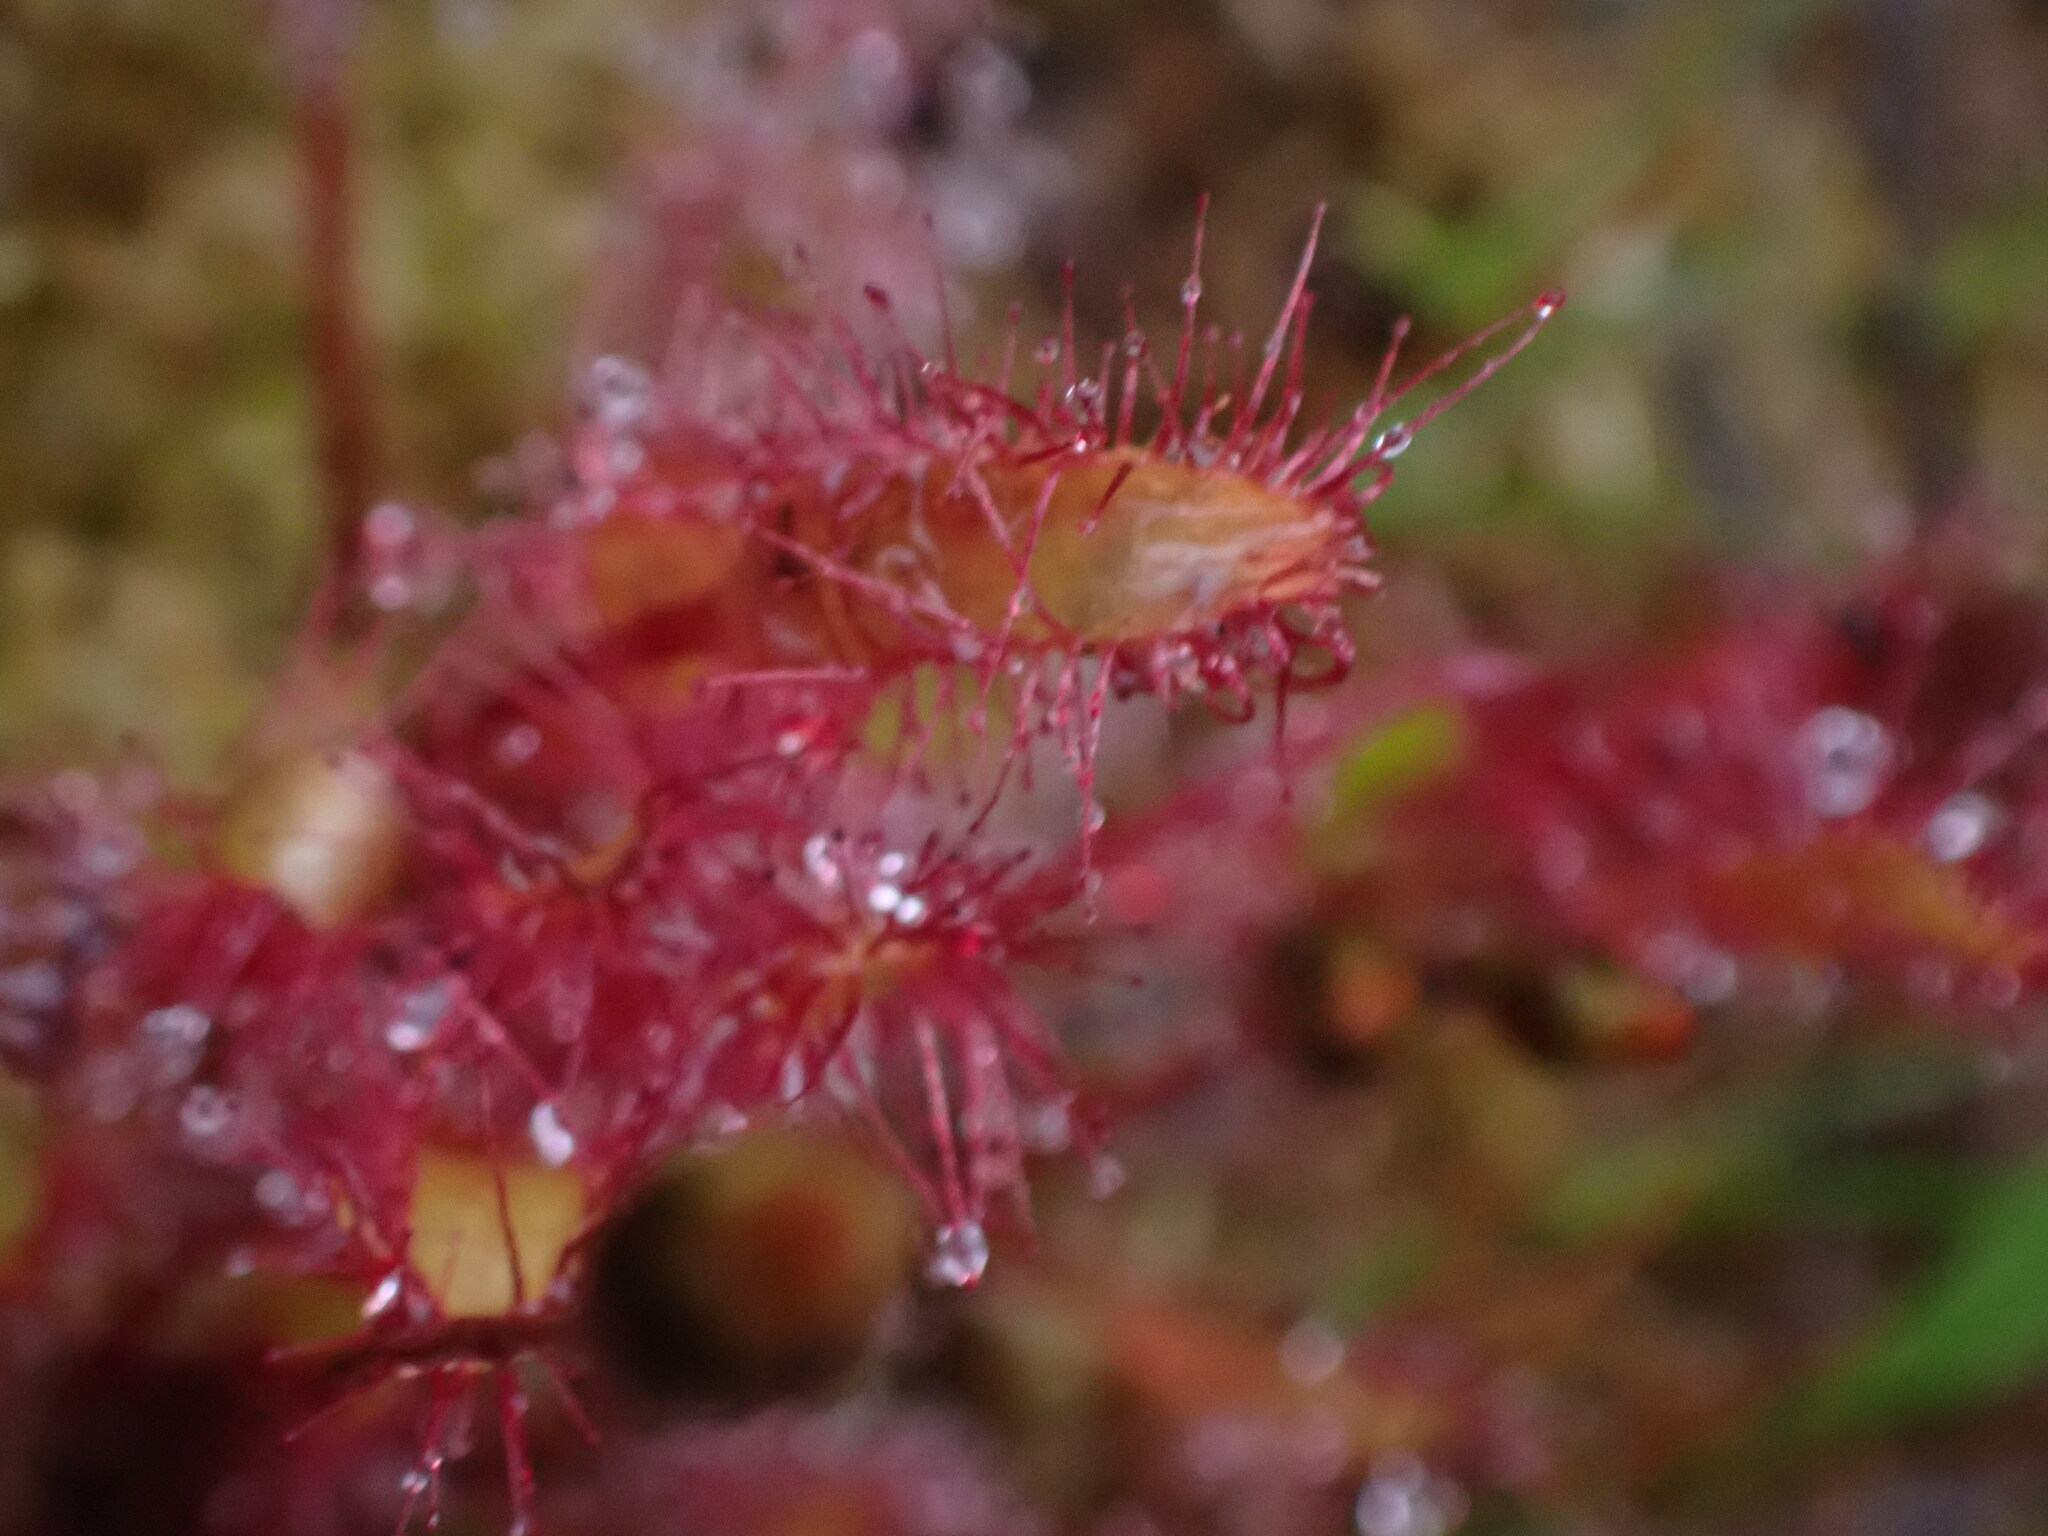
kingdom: Plantae
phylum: Tracheophyta
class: Magnoliopsida
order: Caryophyllales
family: Droseraceae
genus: Drosera
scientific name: Drosera anglica
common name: Great sundew
